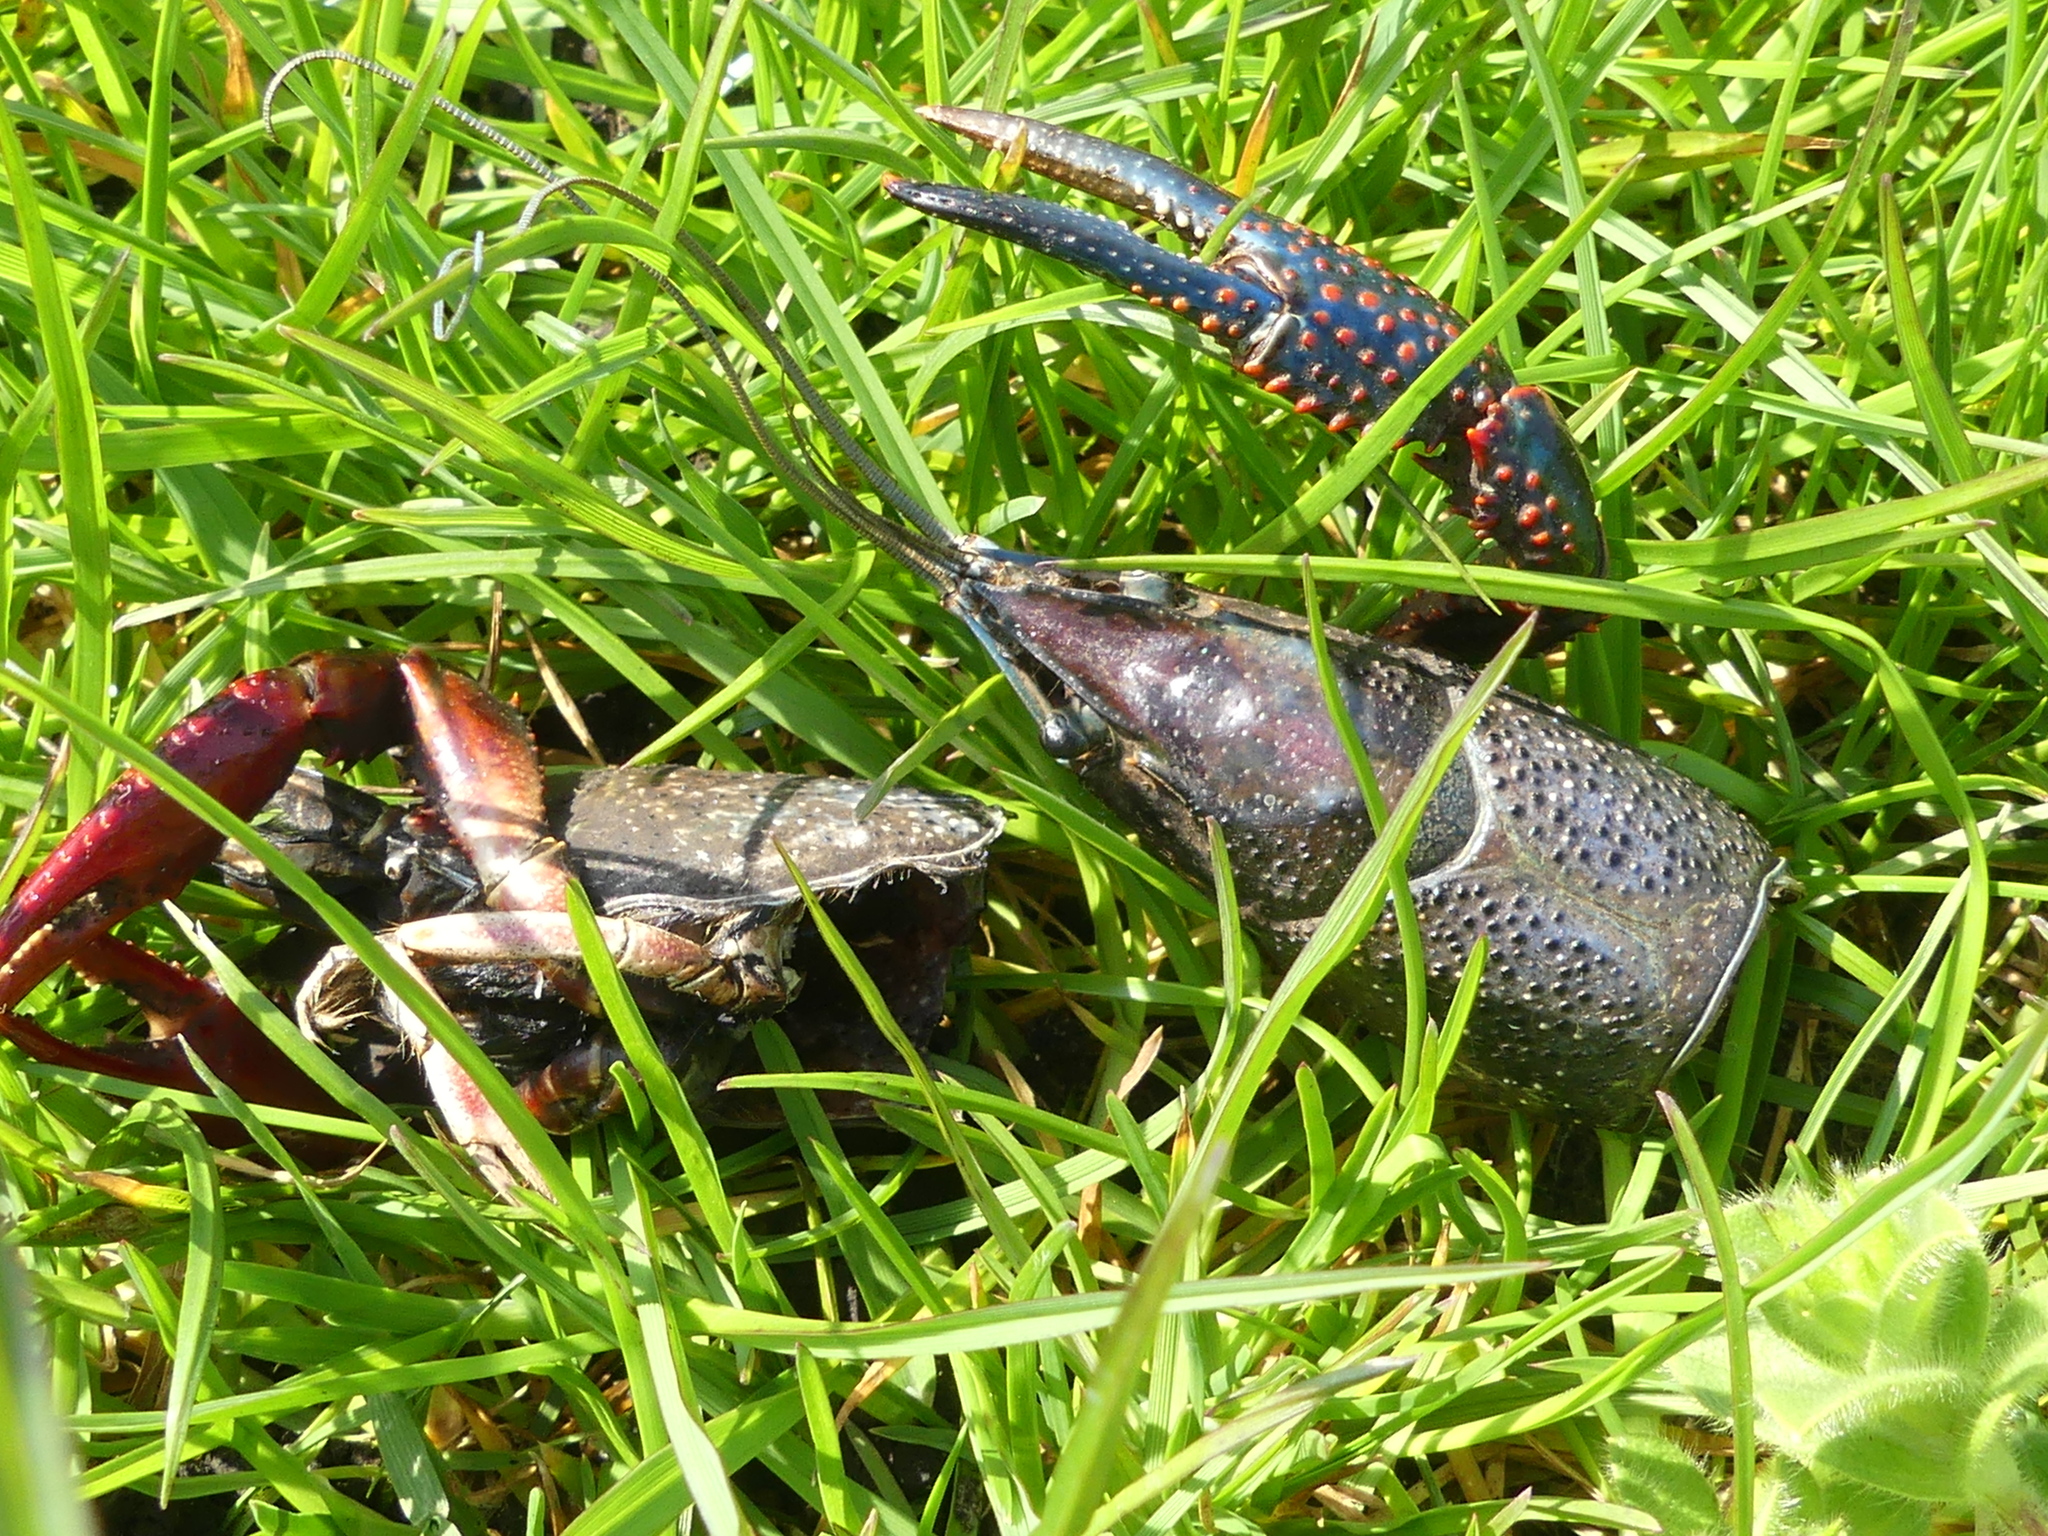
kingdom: Animalia
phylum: Arthropoda
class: Malacostraca
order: Decapoda
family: Cambaridae
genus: Procambarus
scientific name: Procambarus clarkii
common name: Red swamp crayfish
